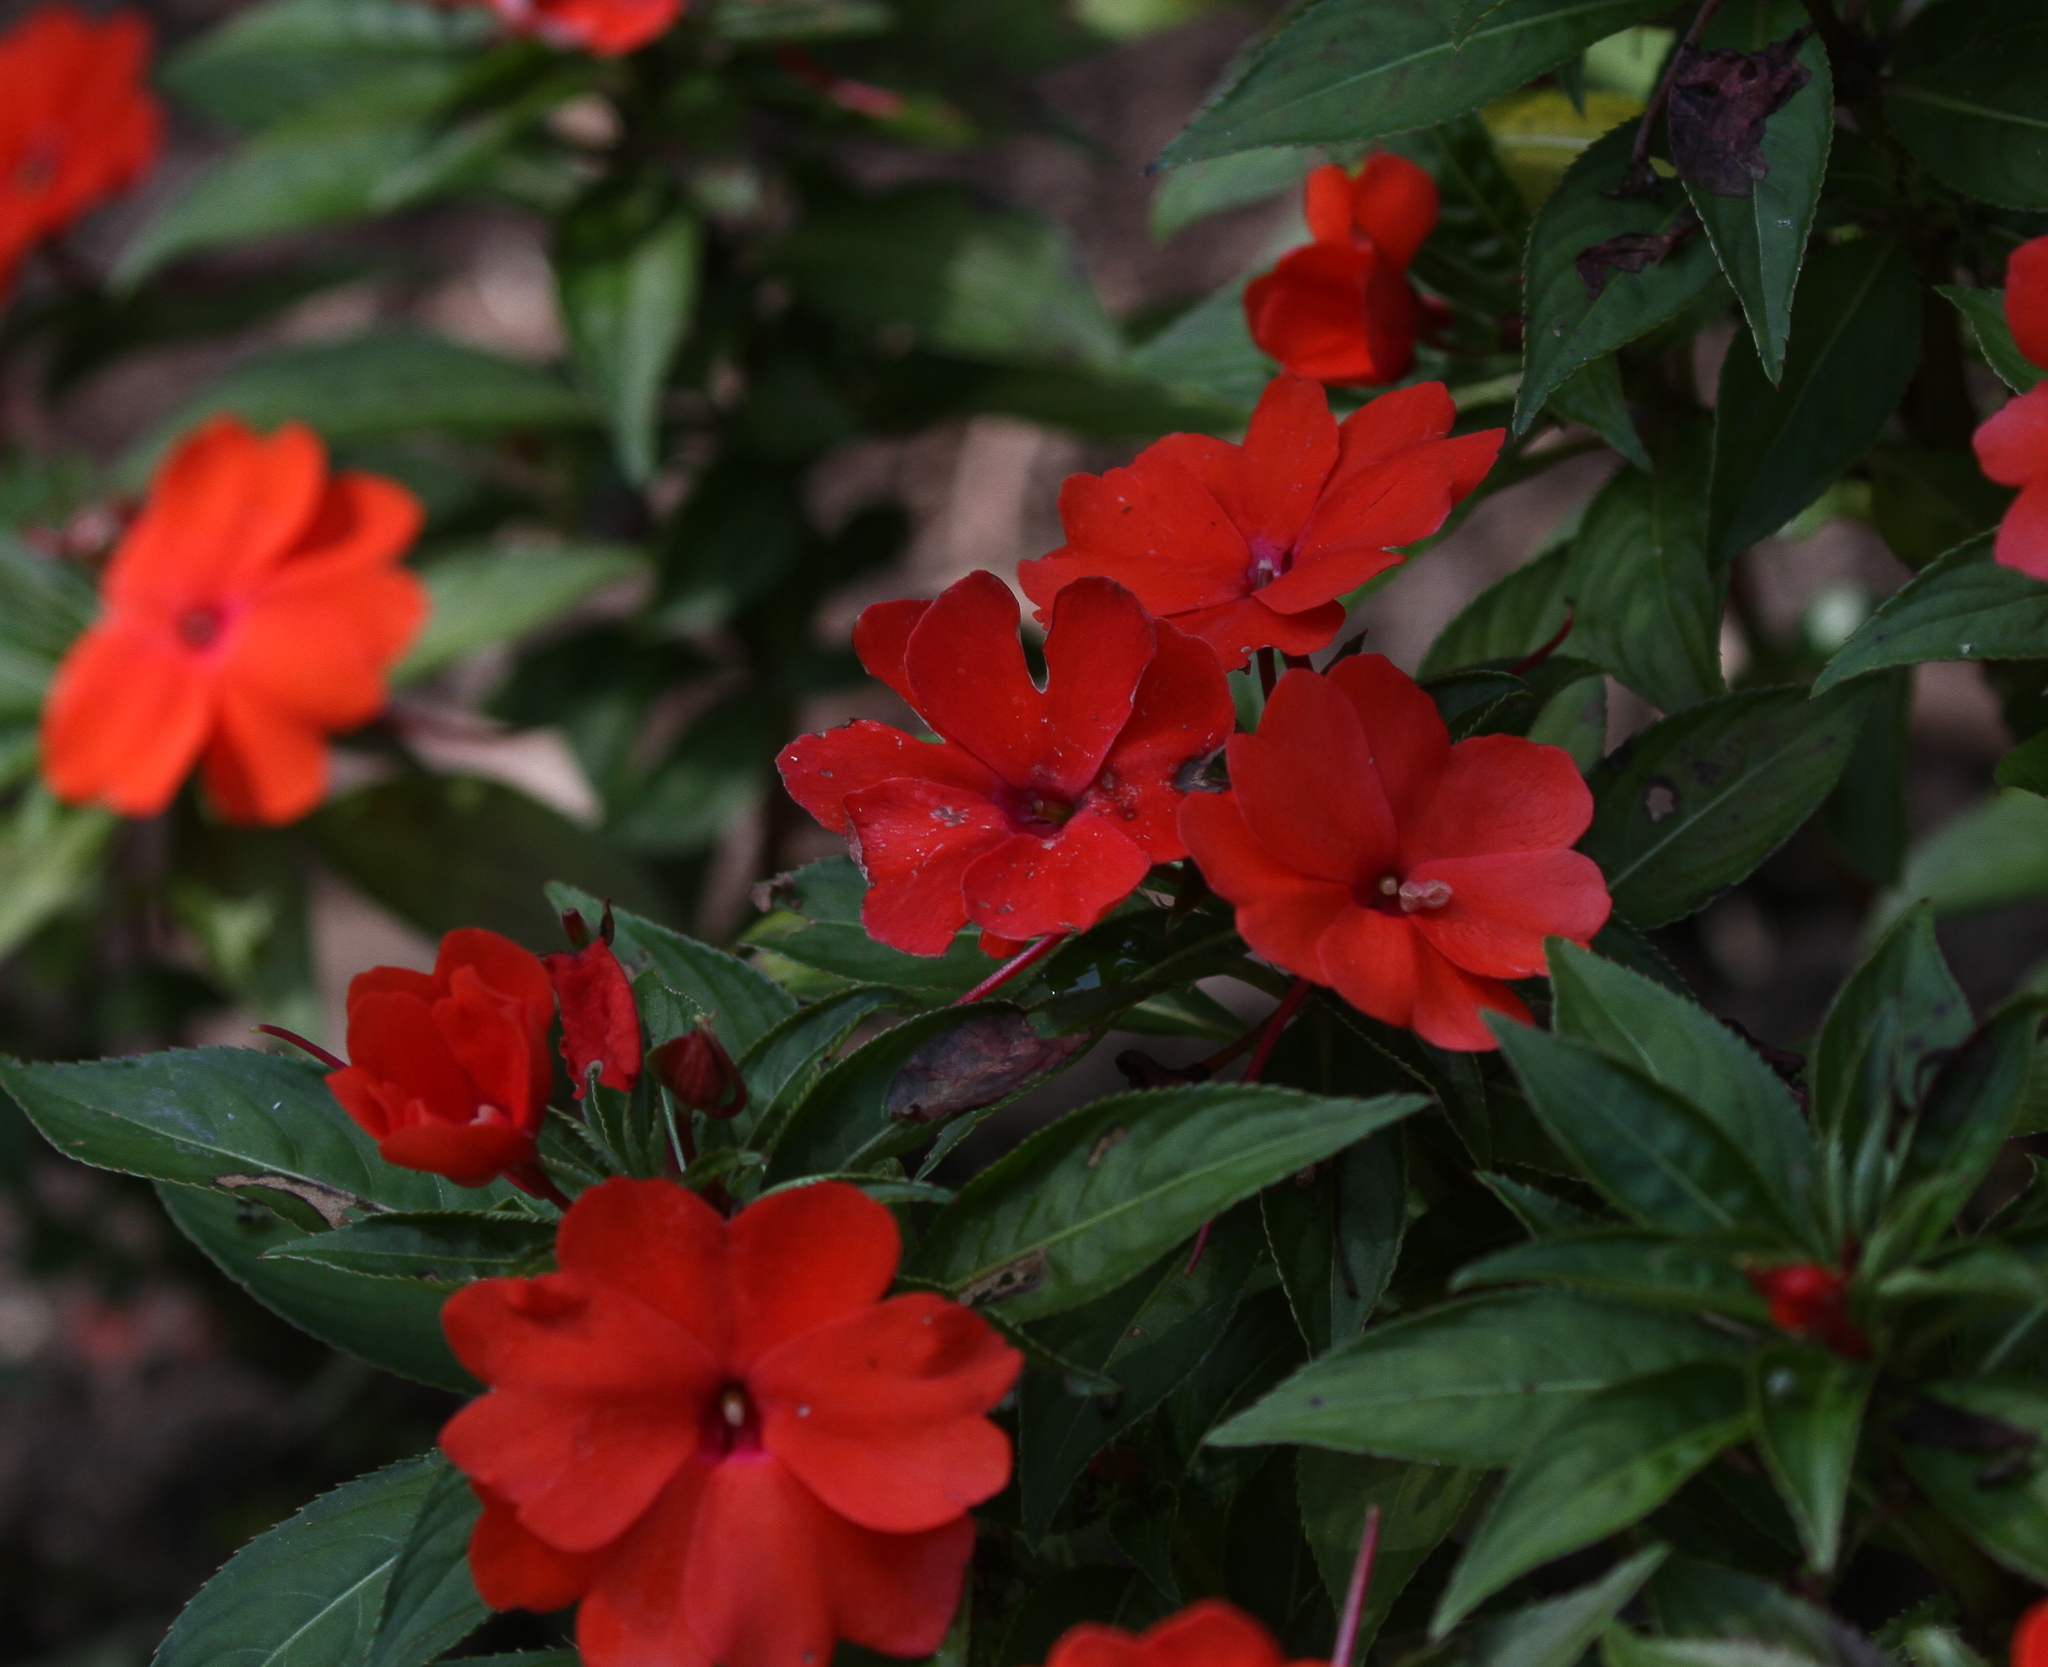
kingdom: Plantae
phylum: Tracheophyta
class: Magnoliopsida
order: Ericales
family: Balsaminaceae
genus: Impatiens
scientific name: Impatiens hawkeri
